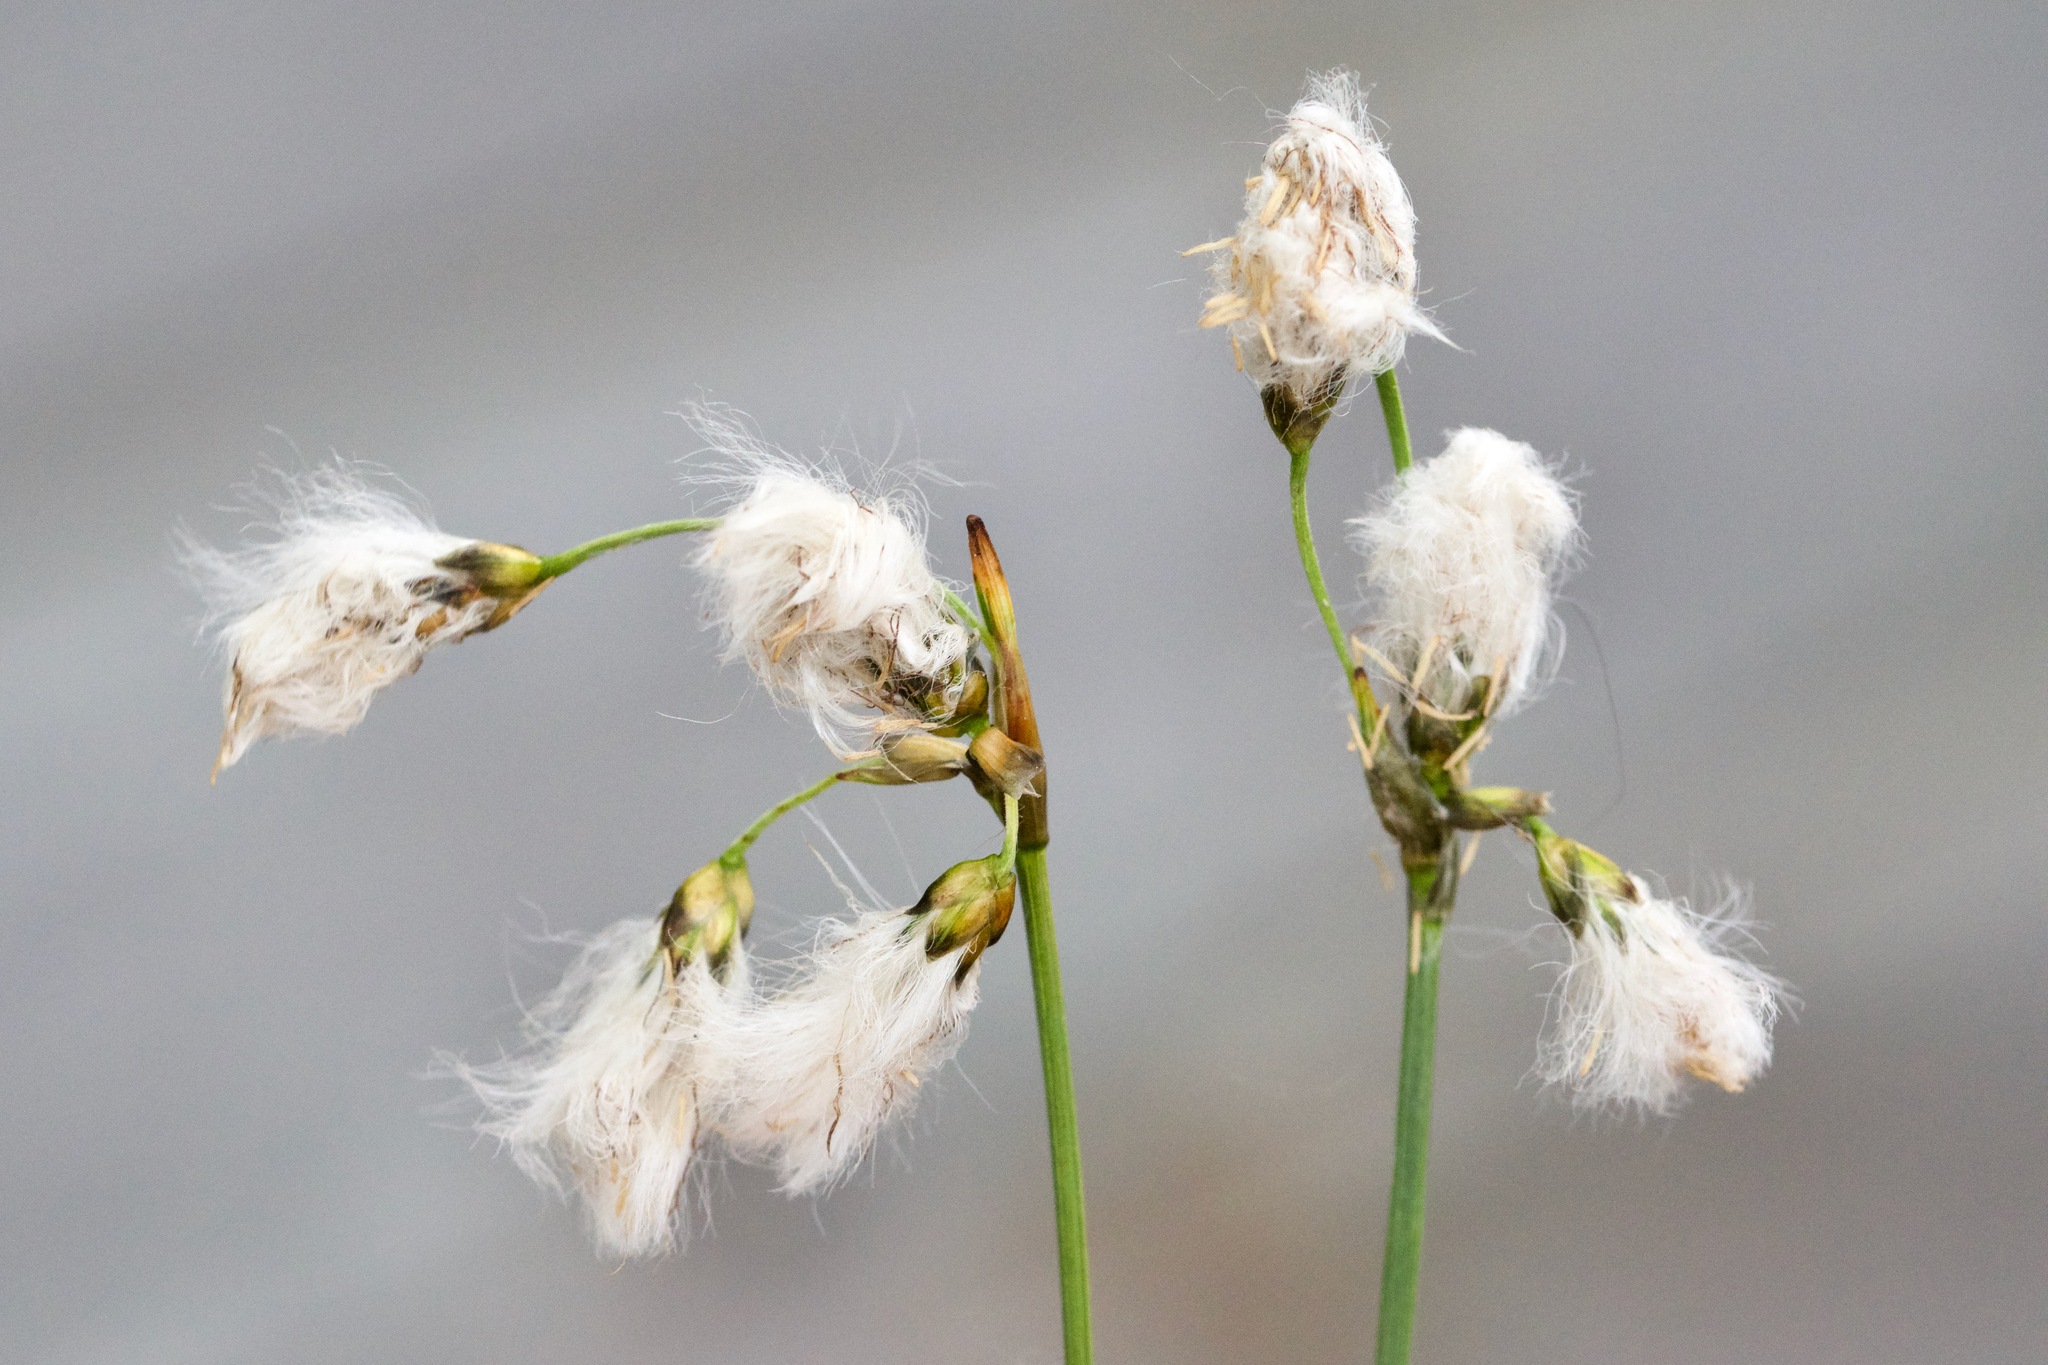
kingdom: Plantae
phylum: Tracheophyta
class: Liliopsida
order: Poales
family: Cyperaceae
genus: Eriophorum
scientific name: Eriophorum gracile
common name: Slender cottongrass
